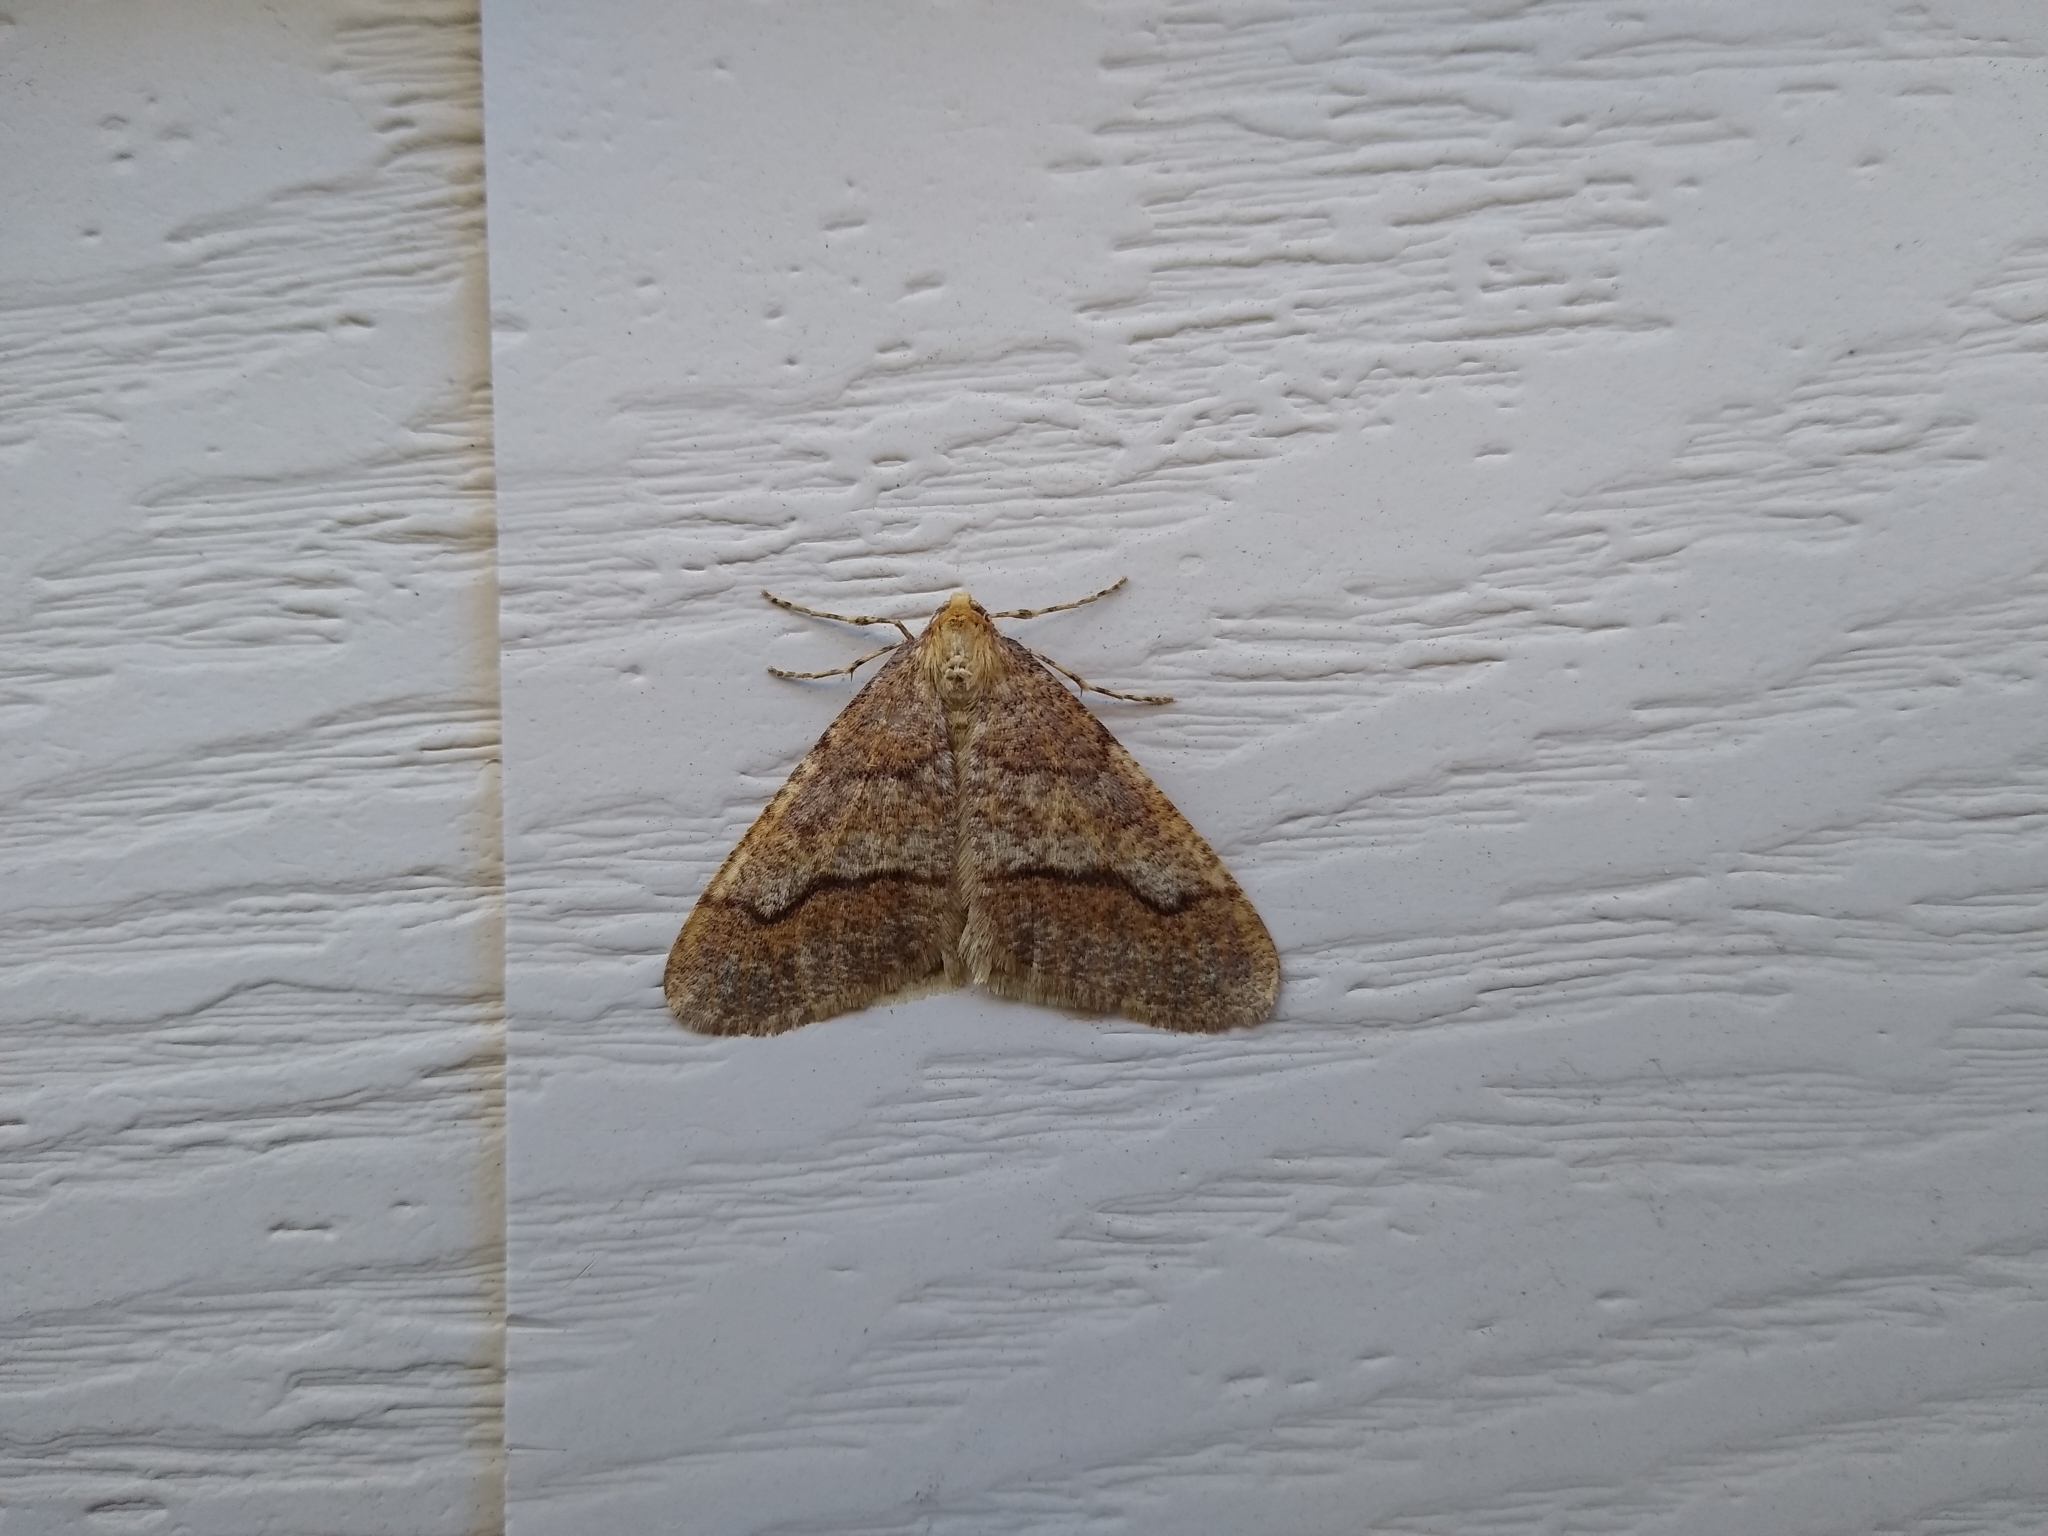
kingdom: Animalia
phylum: Arthropoda
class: Insecta
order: Lepidoptera
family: Geometridae
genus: Erannis
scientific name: Erannis tiliaria
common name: Linden looper
